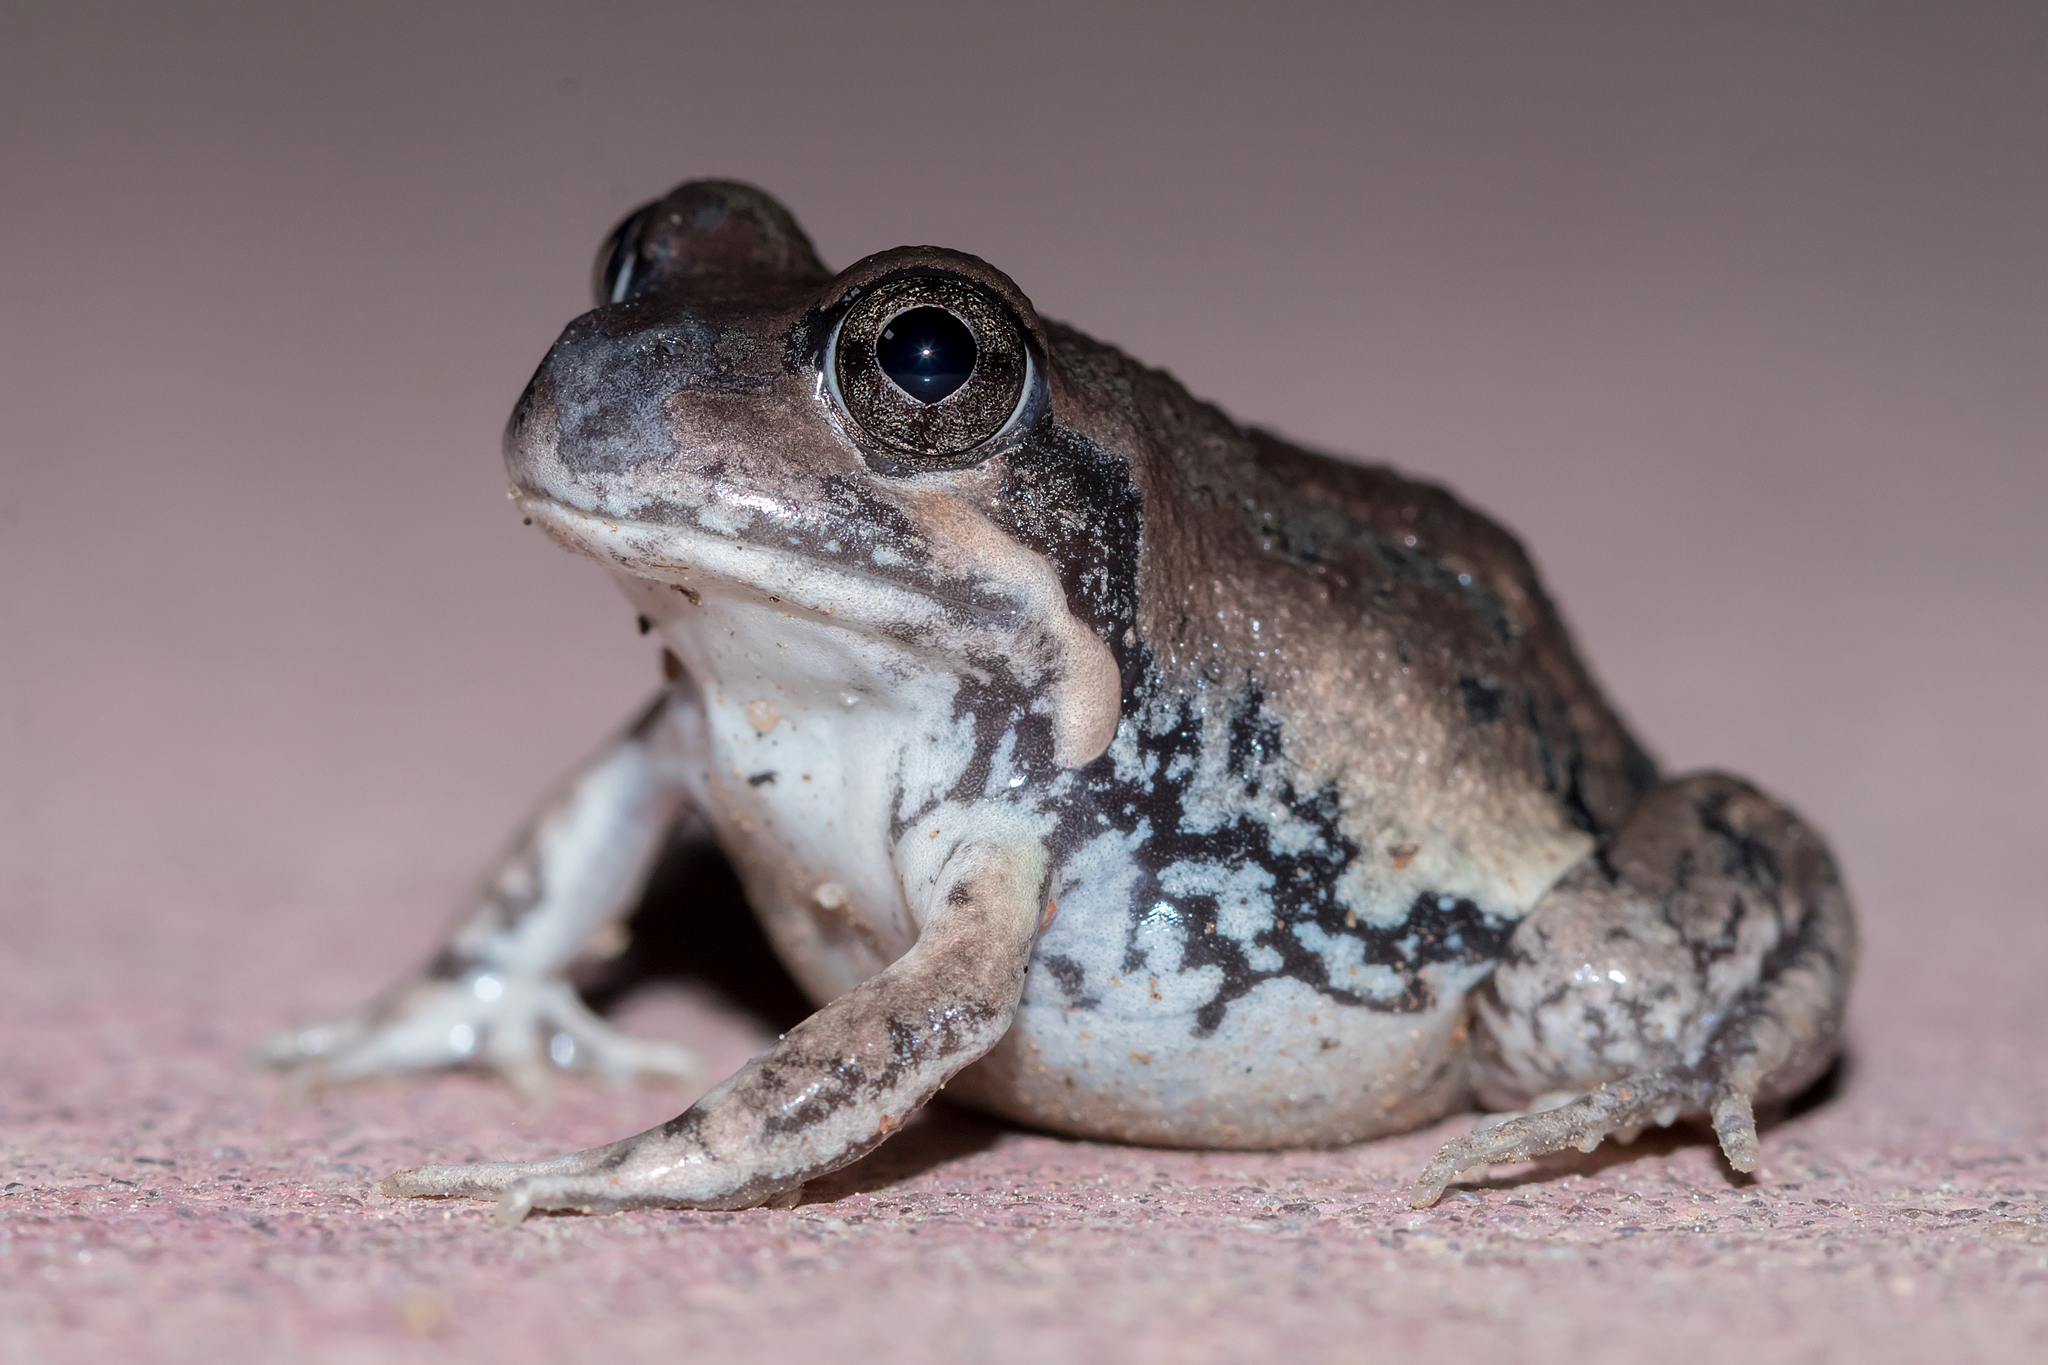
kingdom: Animalia
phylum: Chordata
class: Amphibia
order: Anura
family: Limnodynastidae
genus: Limnodynastes
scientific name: Limnodynastes dumerilii
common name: Banjo frog
